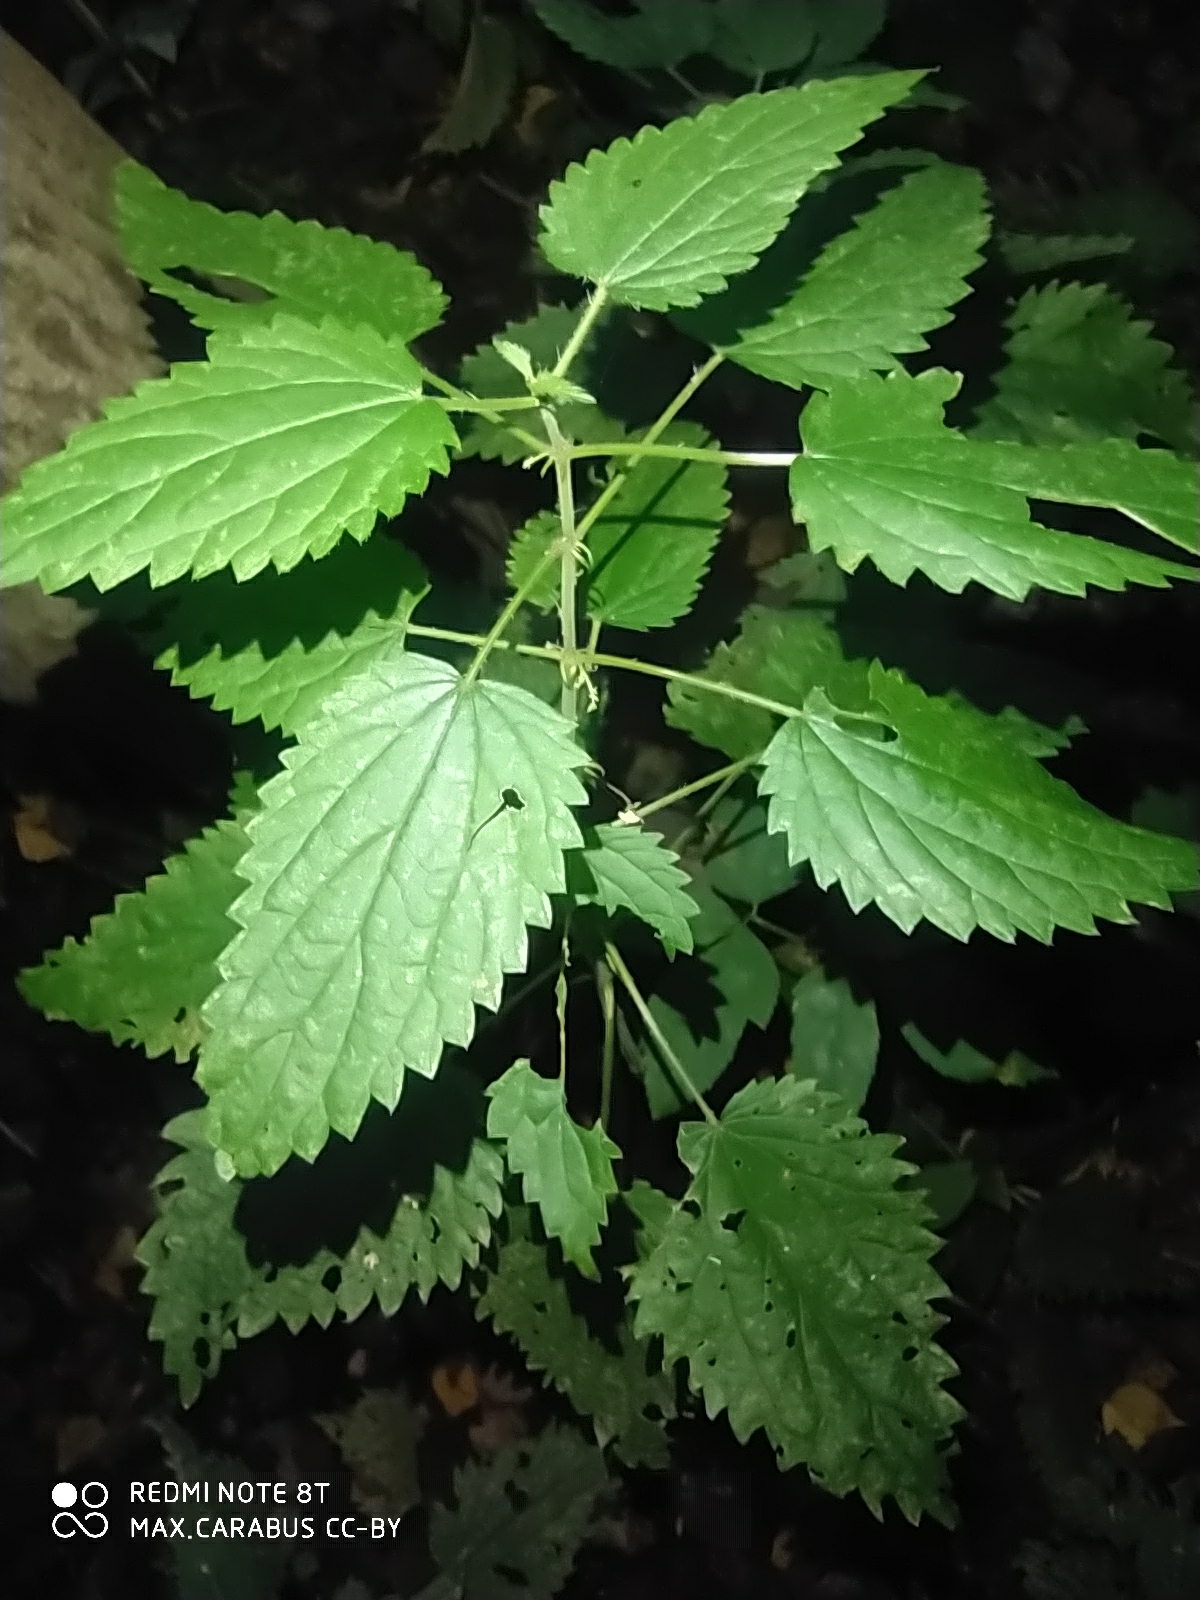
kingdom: Plantae
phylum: Tracheophyta
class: Magnoliopsida
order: Rosales
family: Urticaceae
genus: Urtica
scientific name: Urtica dioica
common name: Common nettle
